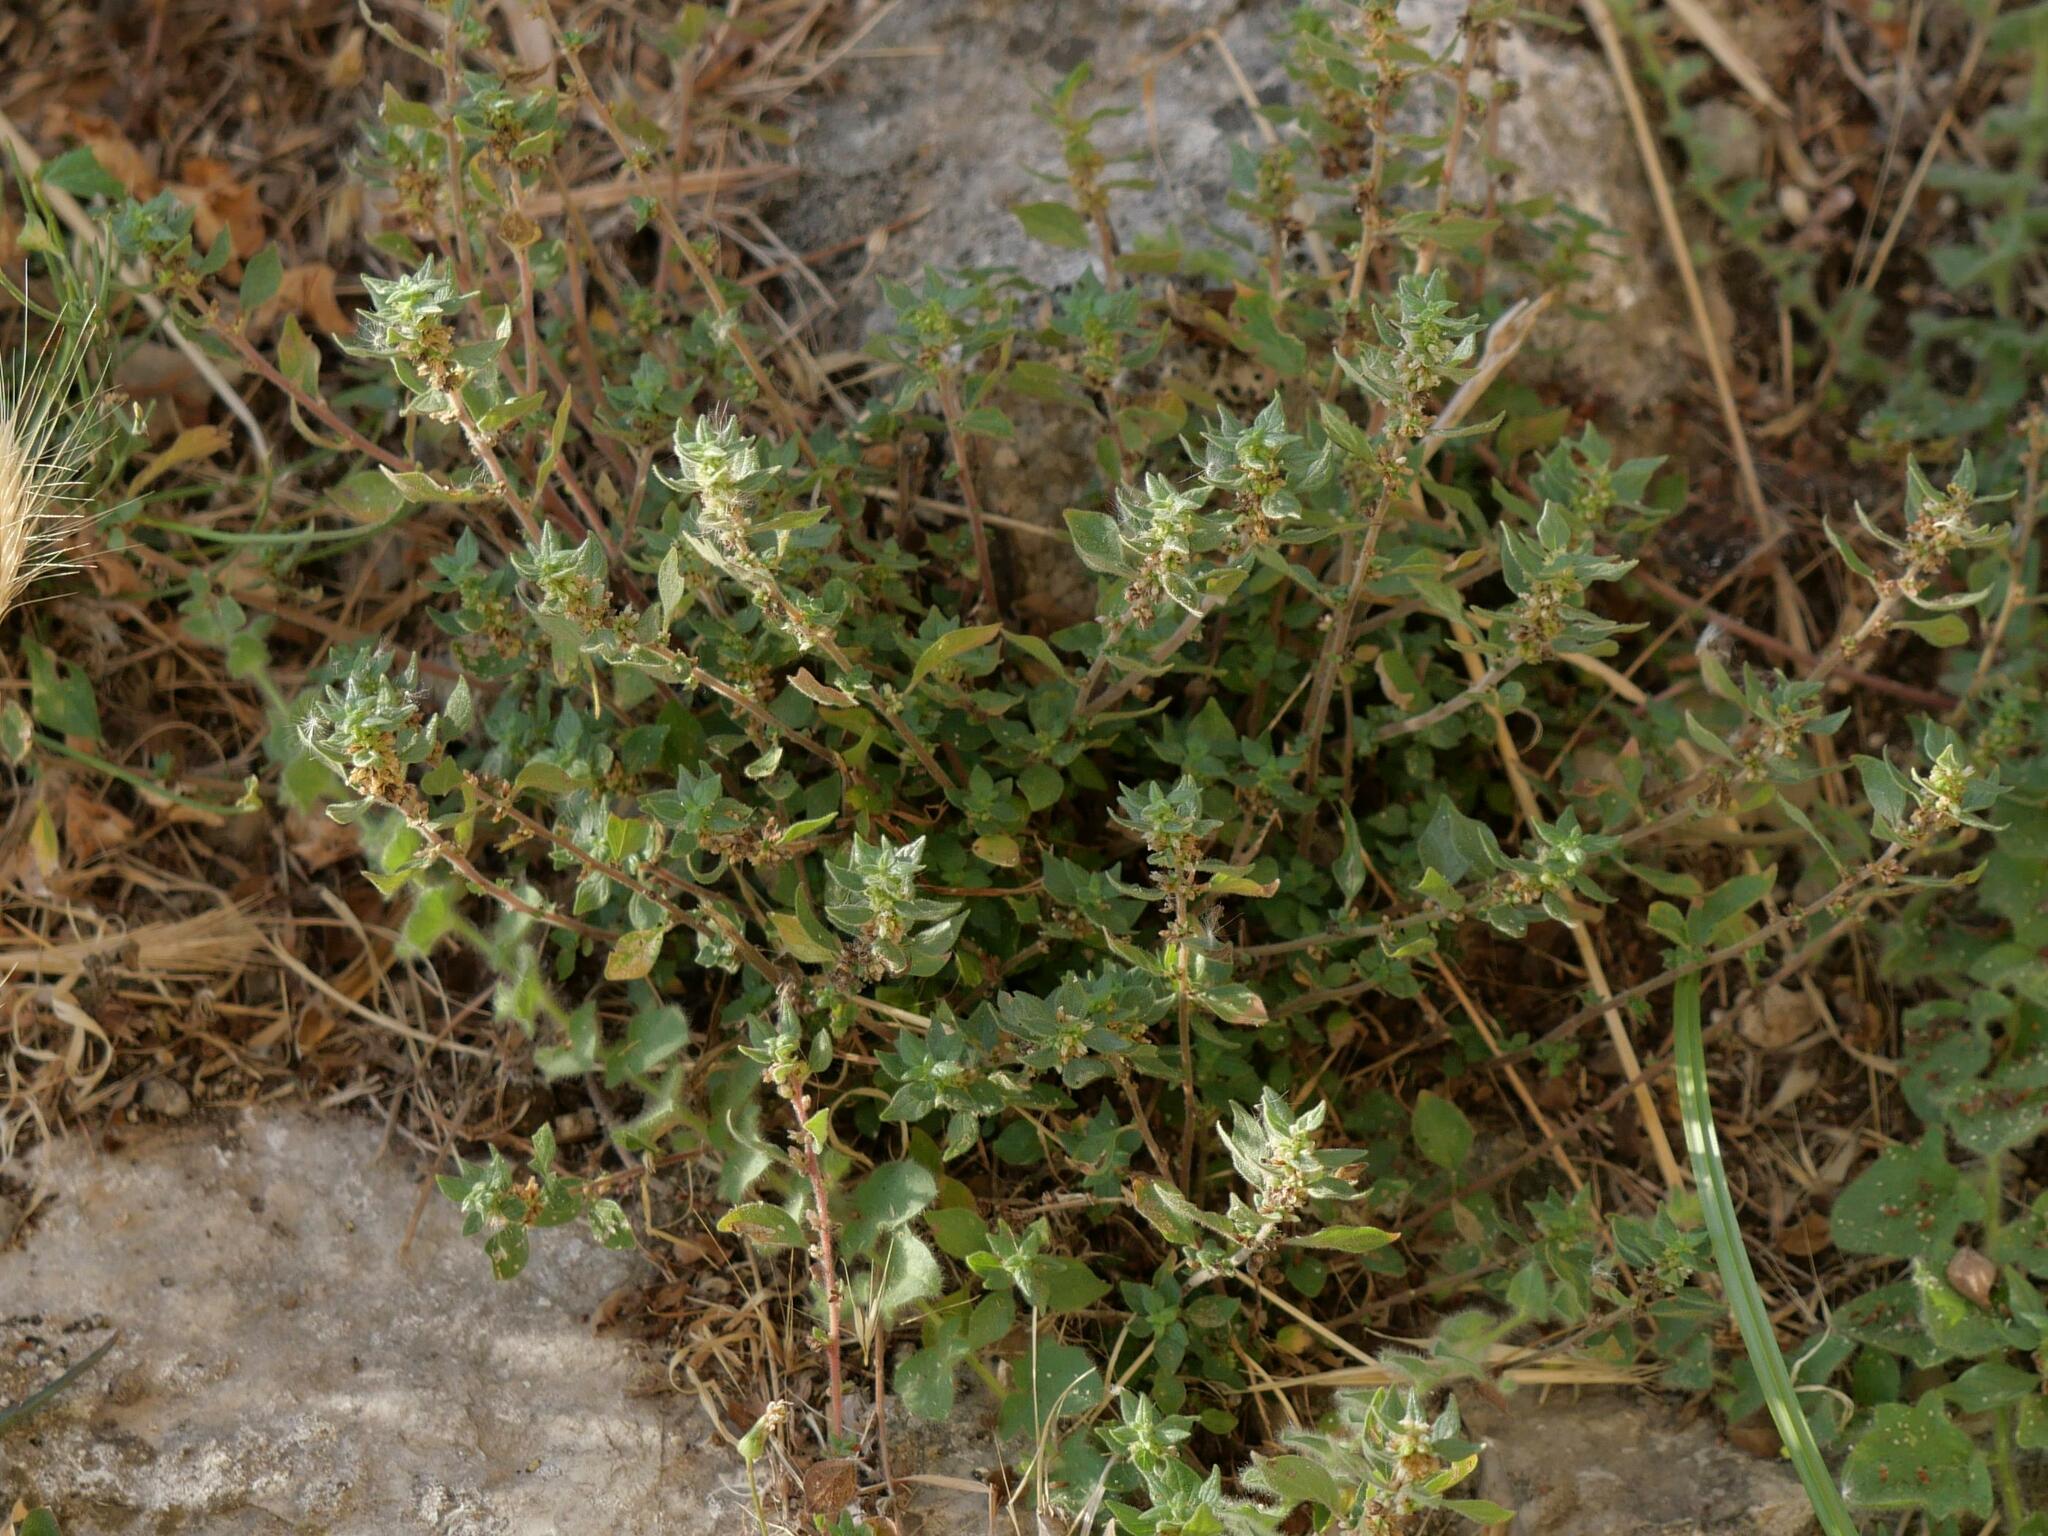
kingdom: Plantae
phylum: Tracheophyta
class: Magnoliopsida
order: Rosales
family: Urticaceae
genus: Parietaria
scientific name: Parietaria judaica
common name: Pellitory-of-the-wall
